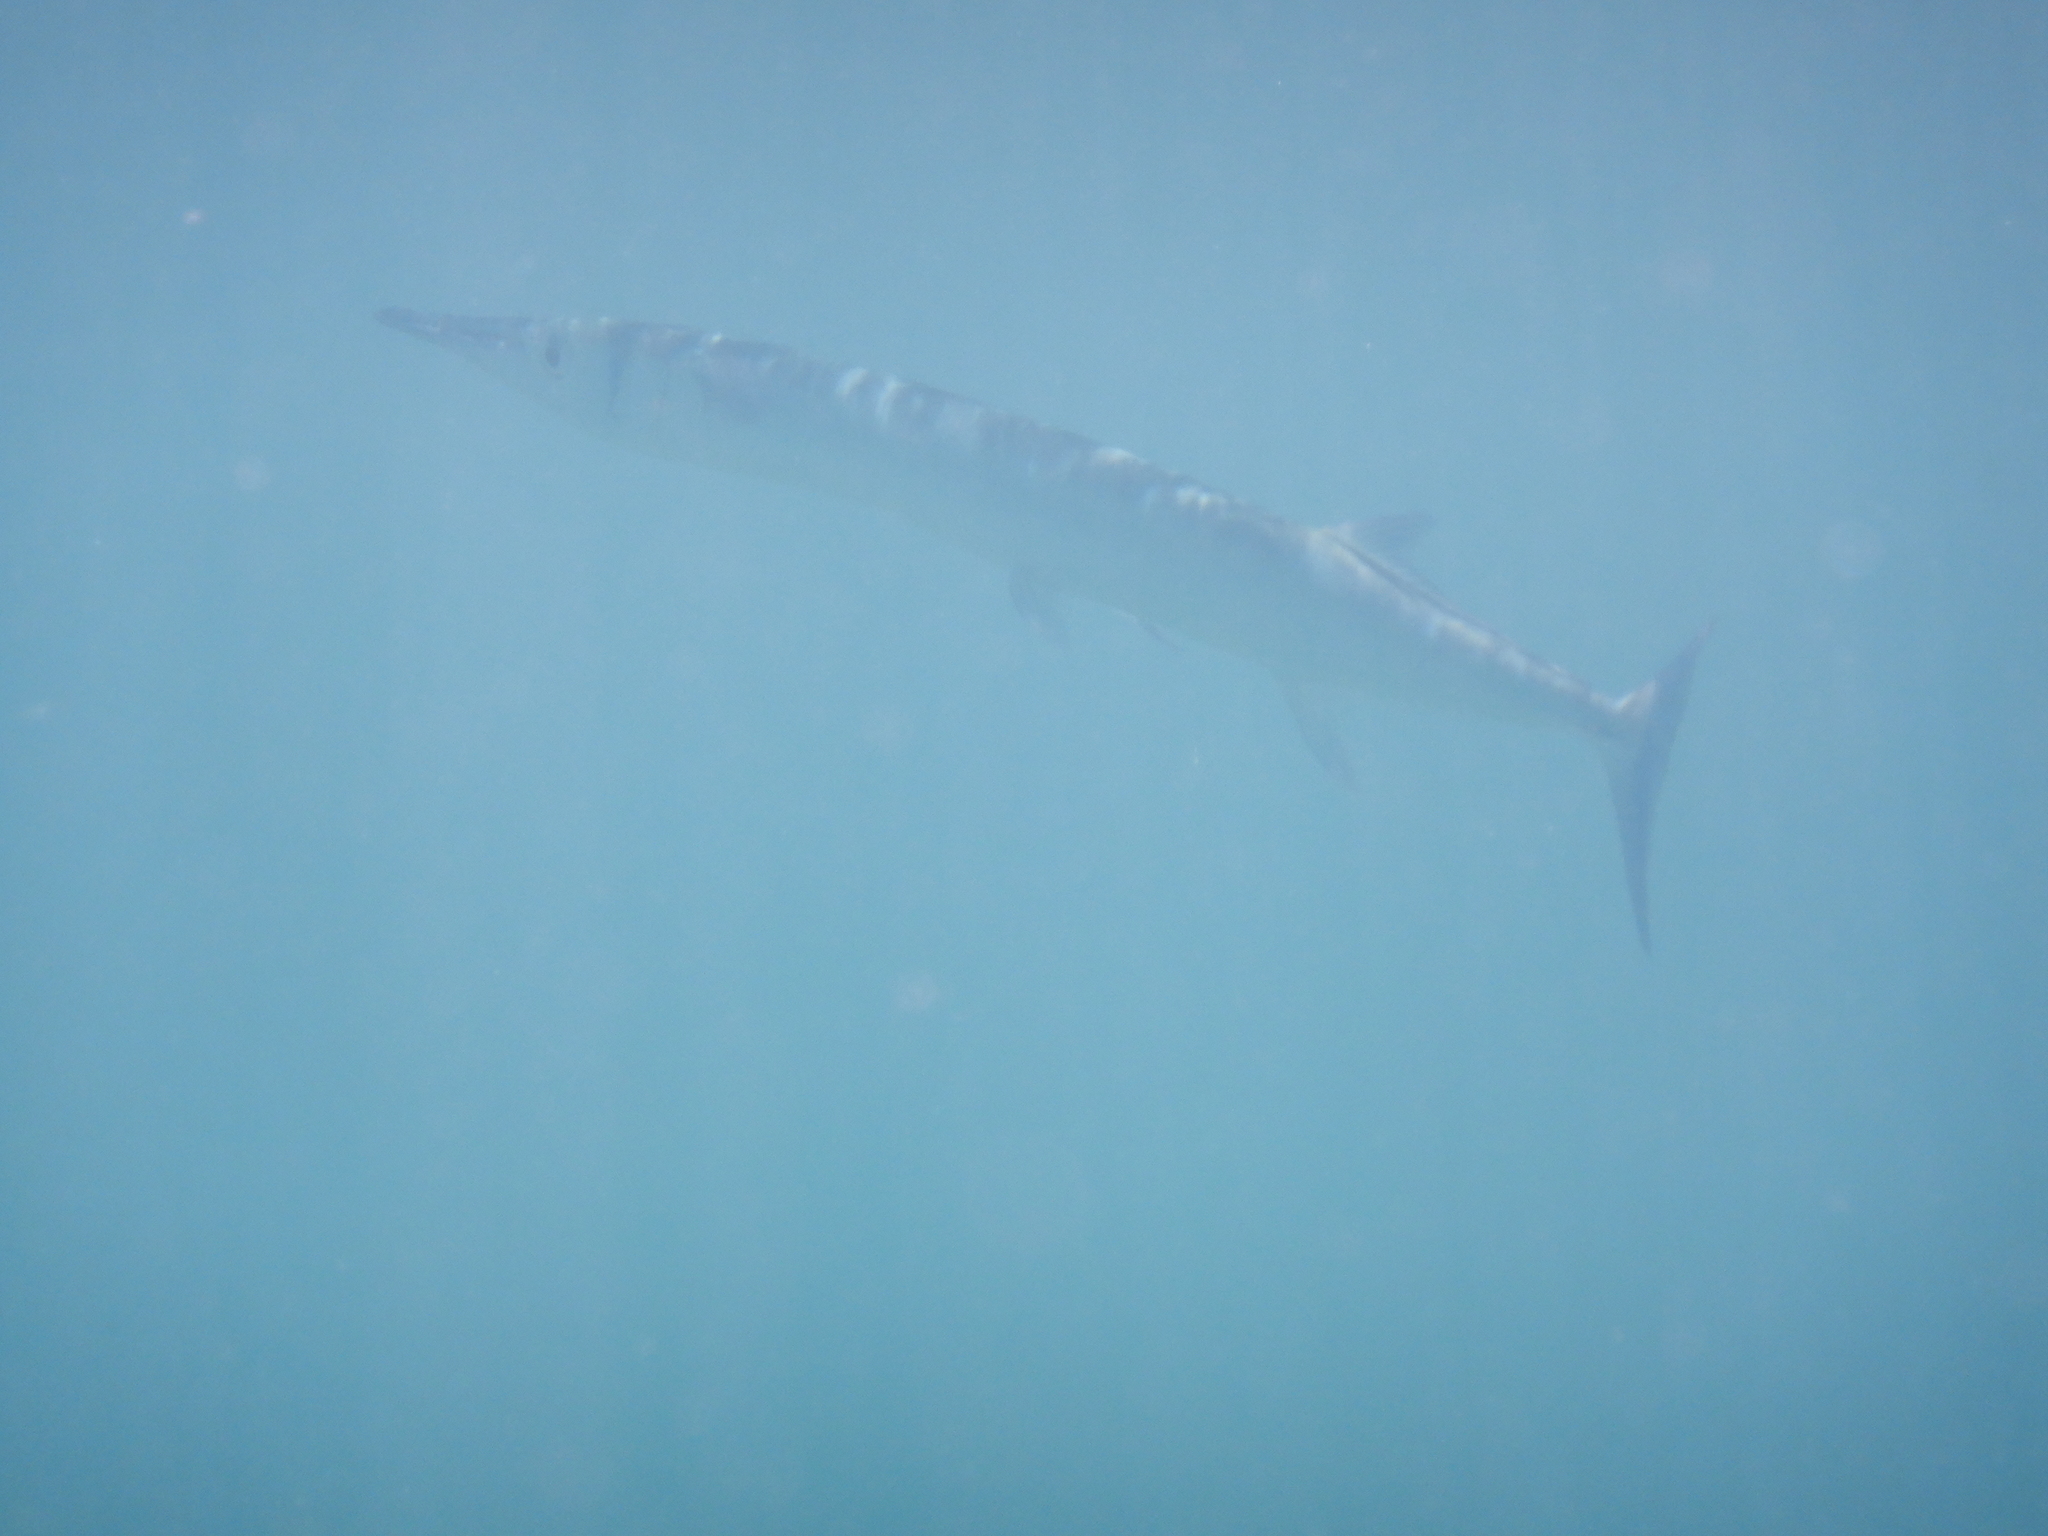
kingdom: Animalia
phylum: Chordata
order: Beloniformes
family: Belonidae
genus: Tylosurus
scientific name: Tylosurus crocodilus
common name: Houndfish
